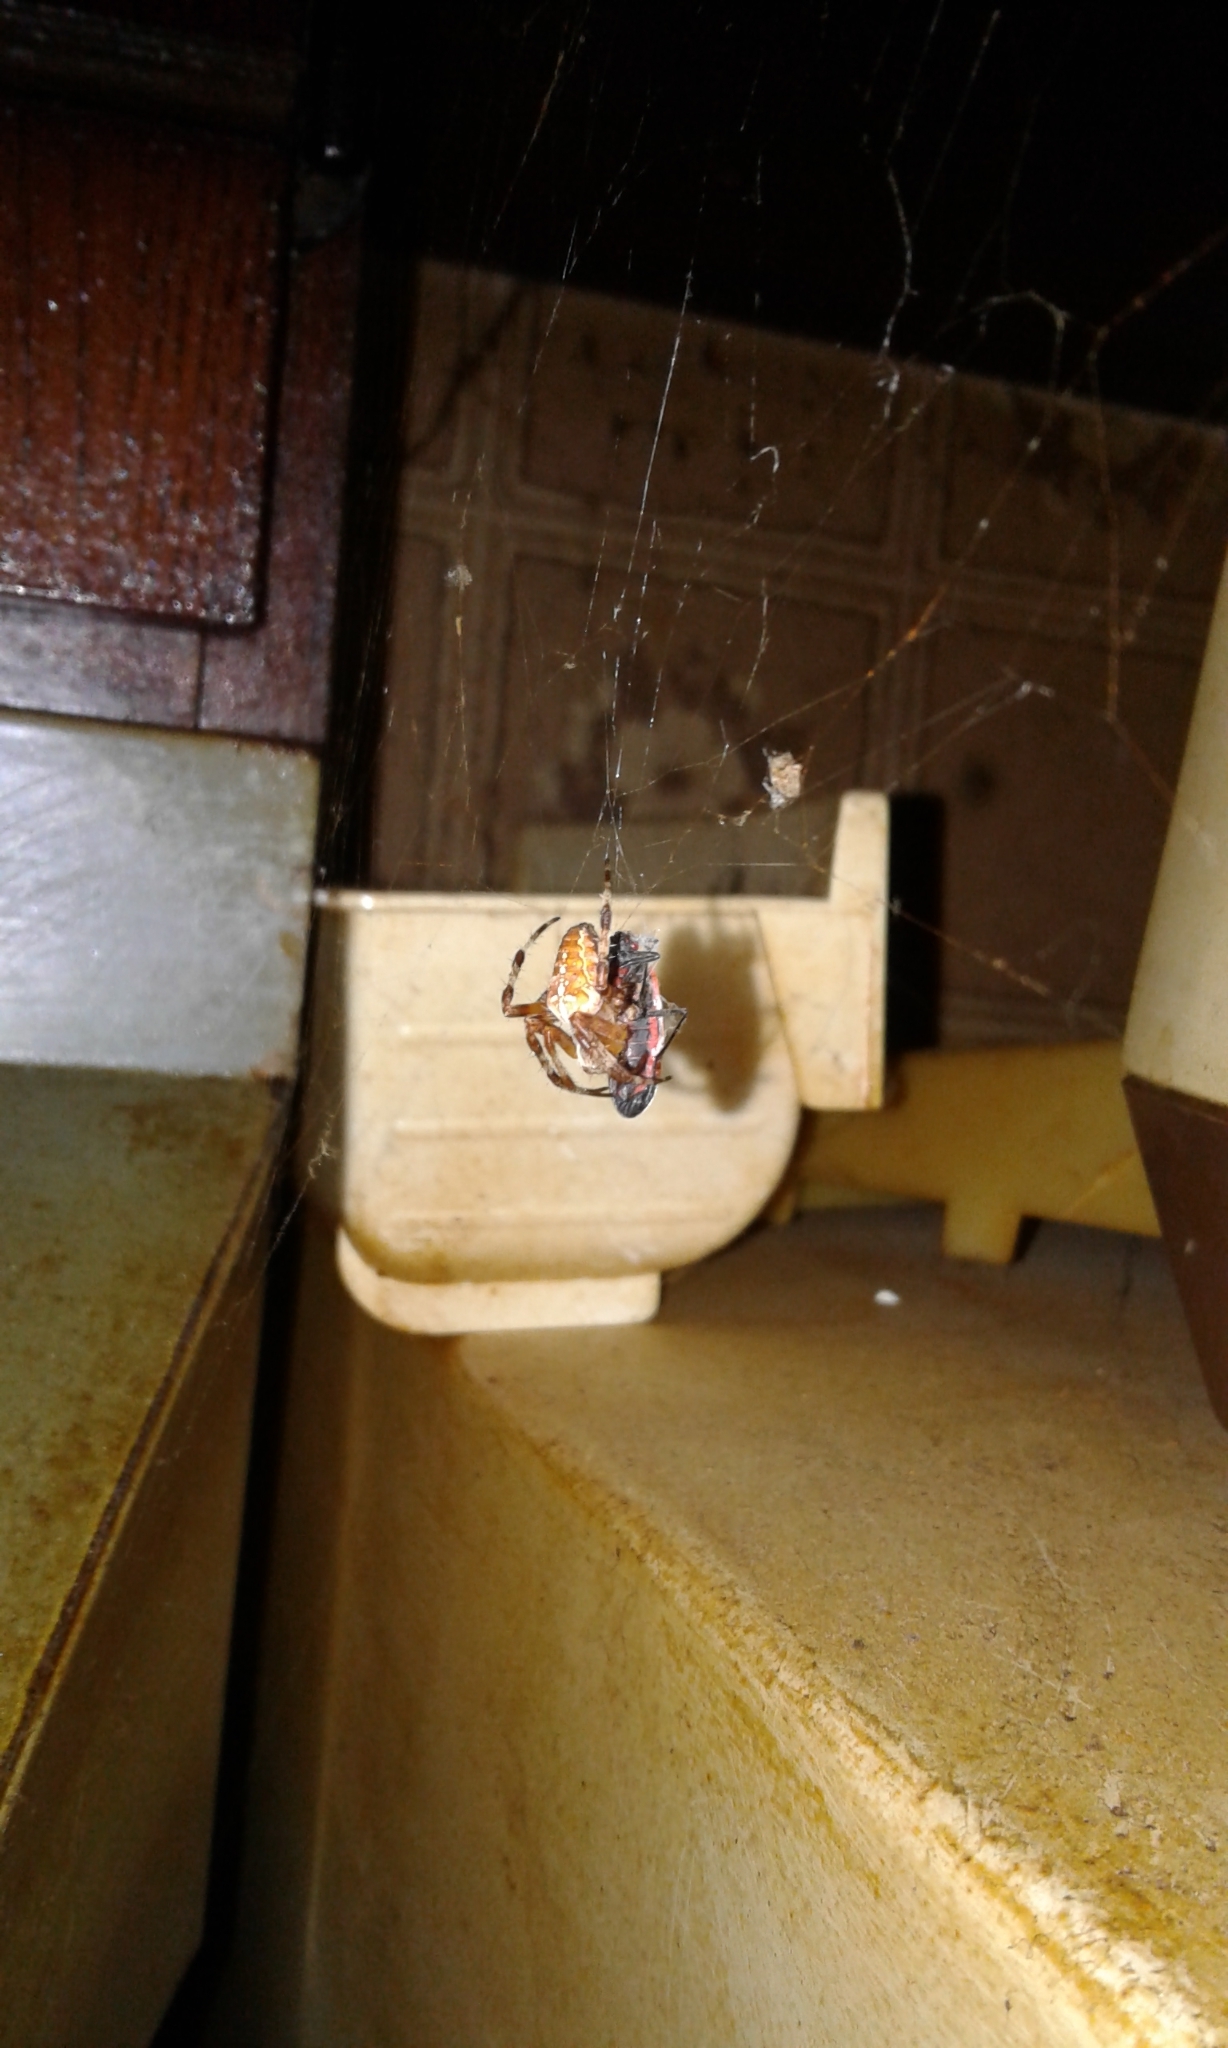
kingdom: Animalia
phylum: Arthropoda
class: Arachnida
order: Araneae
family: Araneidae
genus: Araneus
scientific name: Araneus diadematus
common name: Cross orbweaver
